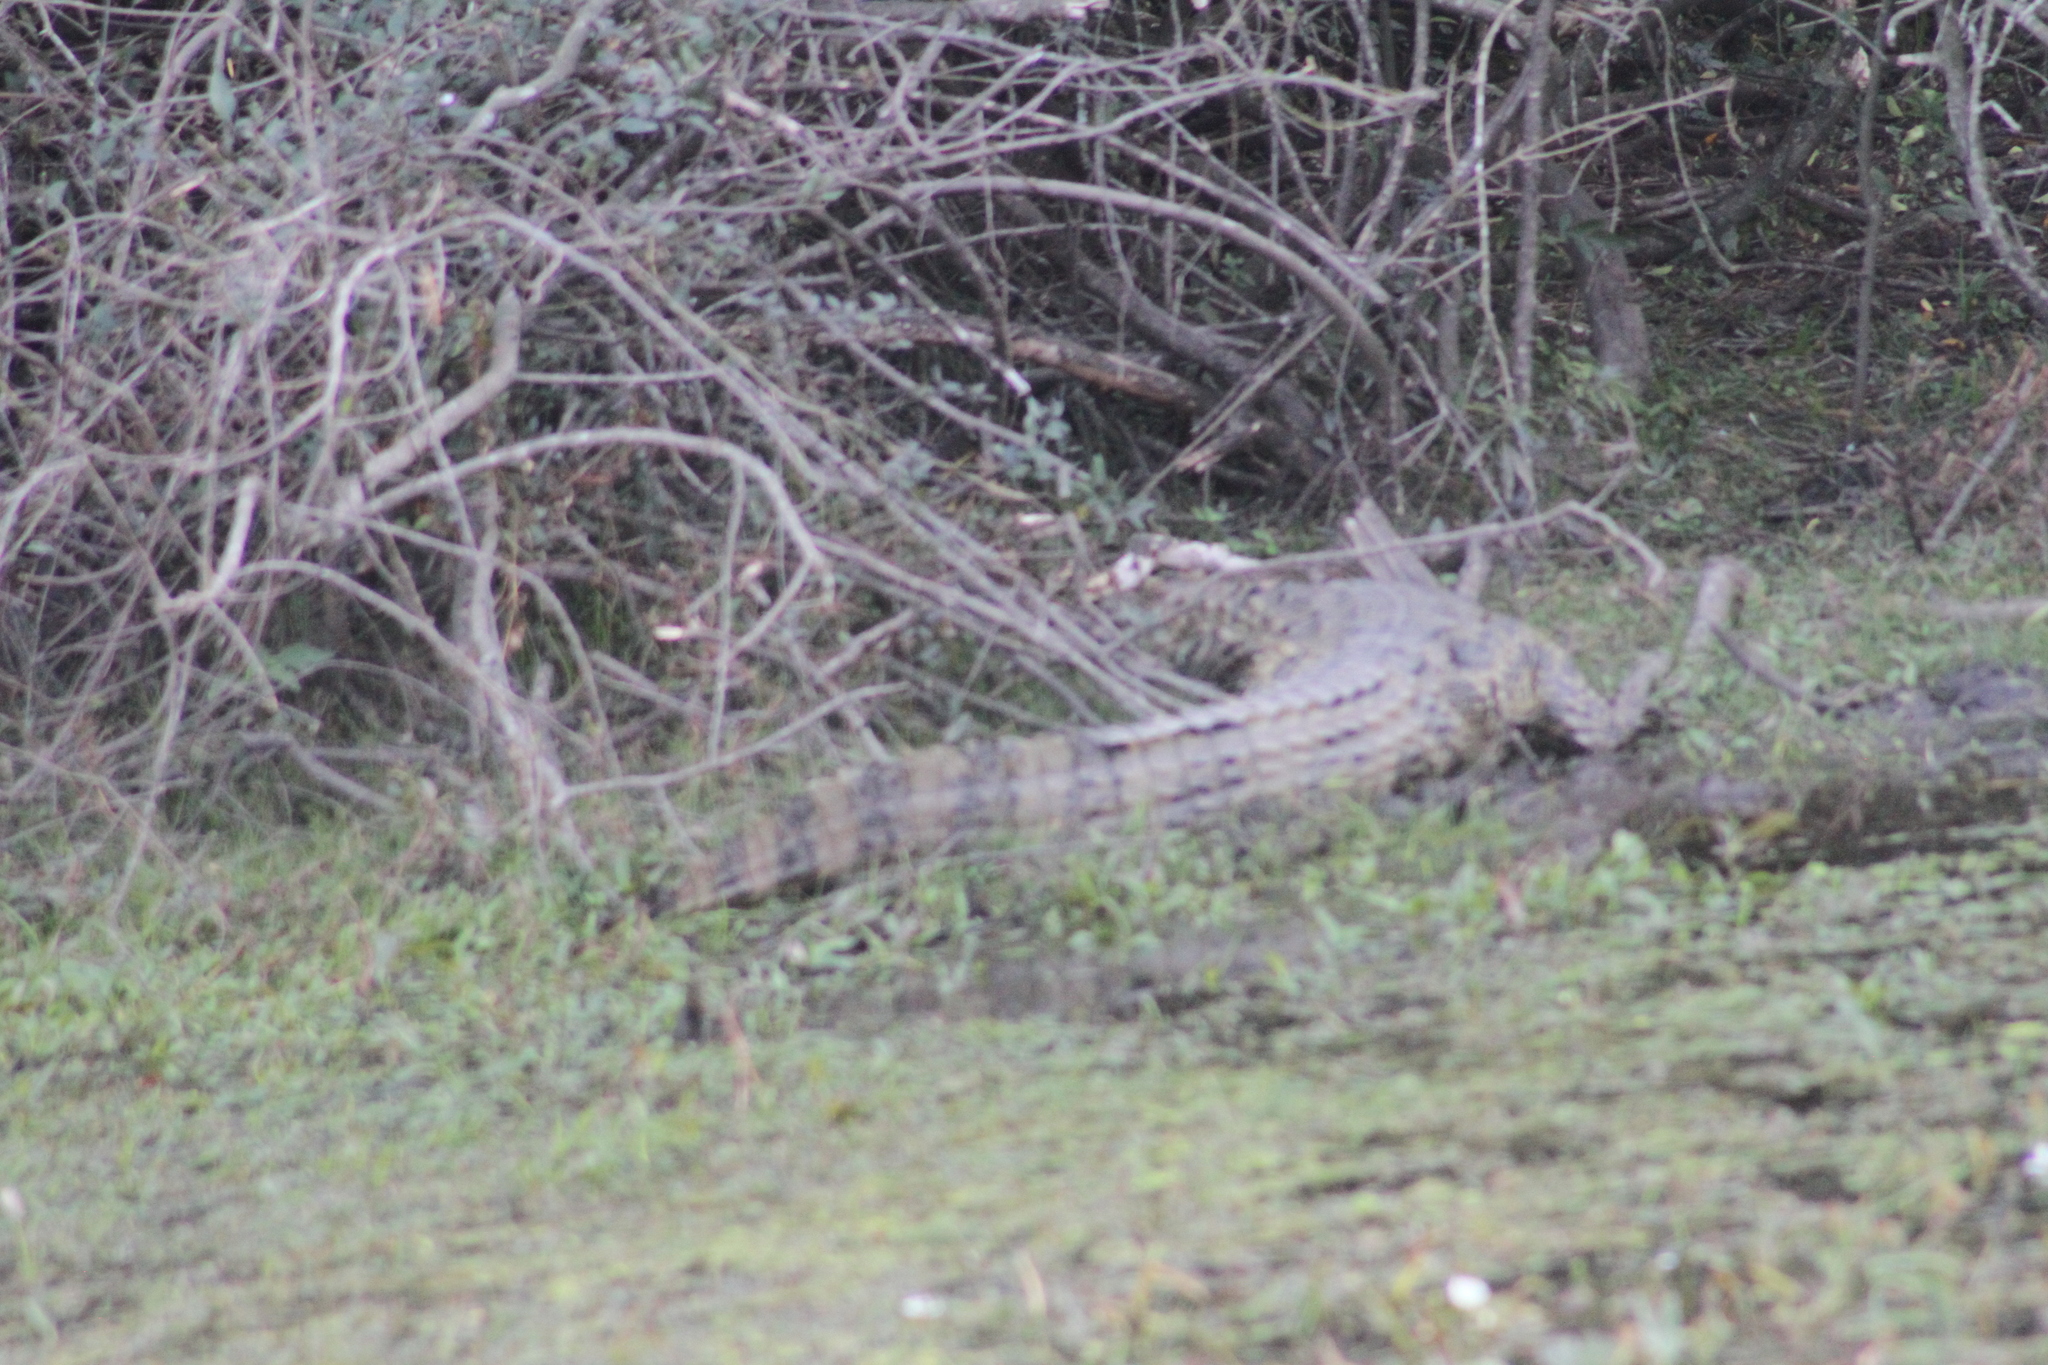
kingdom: Animalia
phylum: Chordata
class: Crocodylia
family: Alligatoridae
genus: Caiman
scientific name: Caiman latirostris
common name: Broad-snouted caiman
